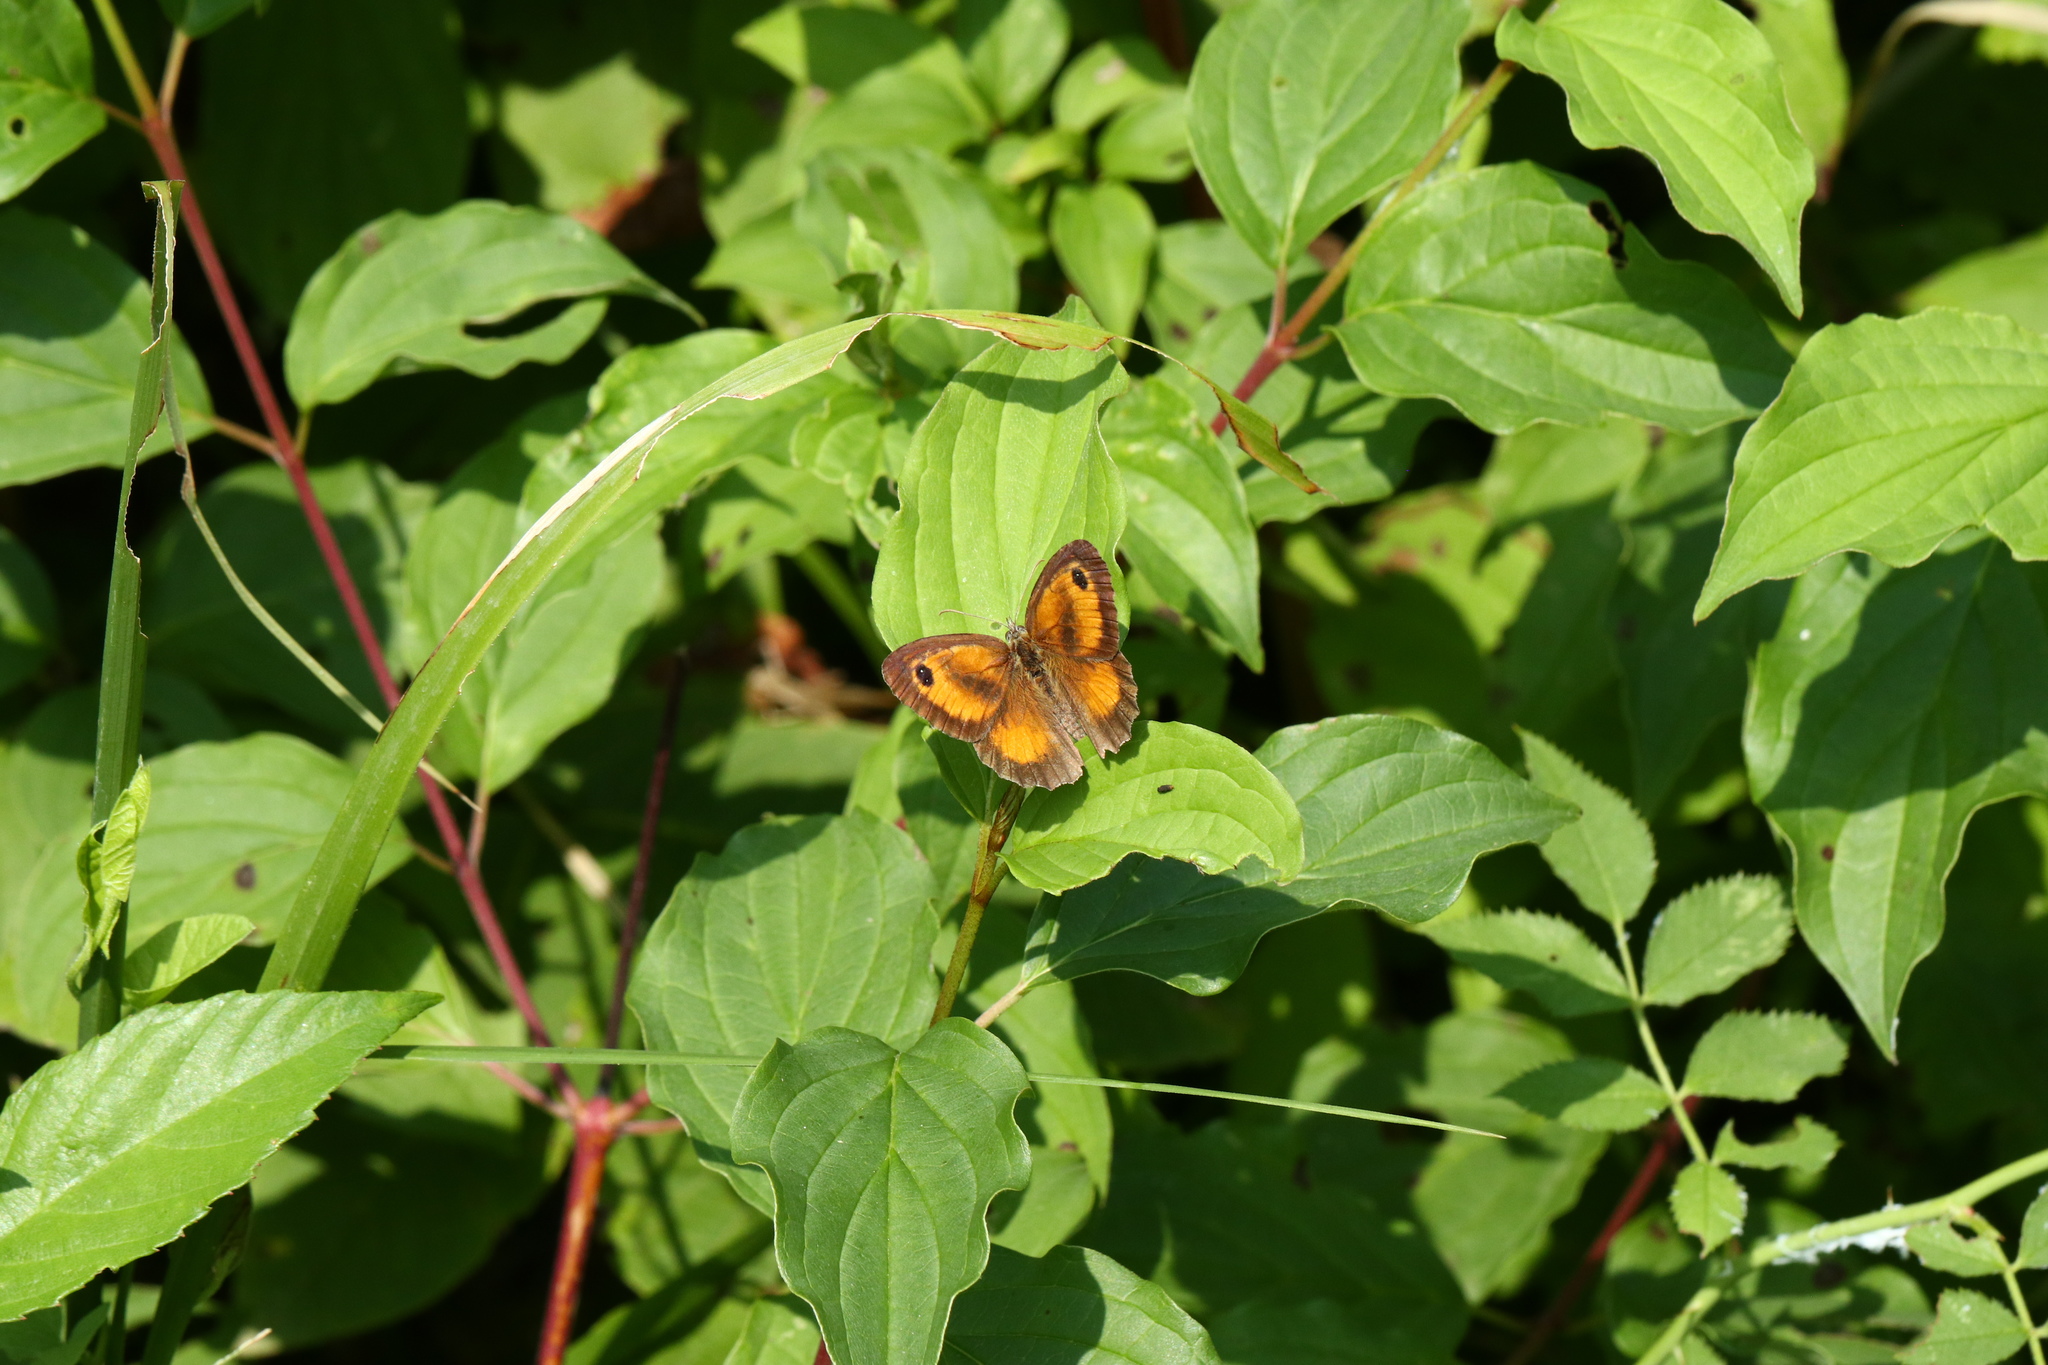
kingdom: Animalia
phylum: Arthropoda
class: Insecta
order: Lepidoptera
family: Nymphalidae
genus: Pyronia
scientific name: Pyronia tithonus
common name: Gatekeeper
